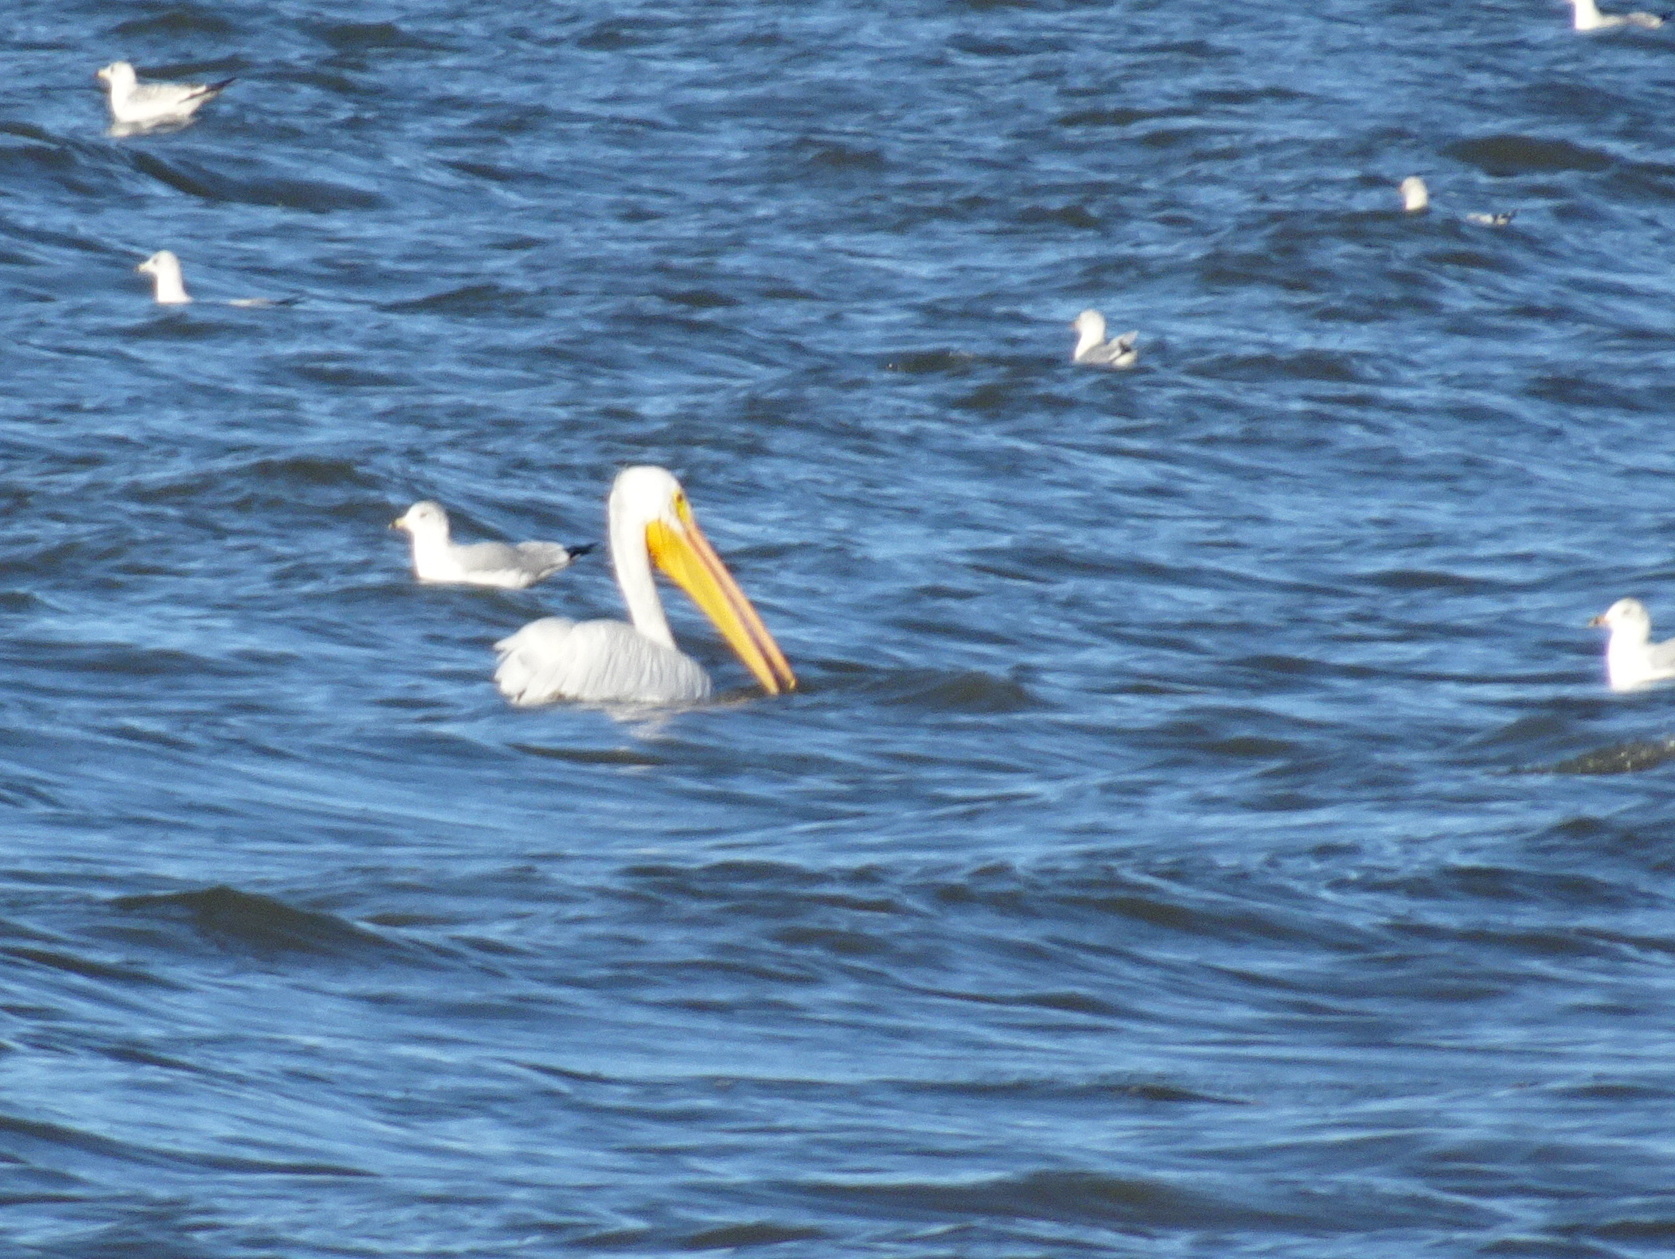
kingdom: Animalia
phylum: Chordata
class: Aves
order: Pelecaniformes
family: Pelecanidae
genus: Pelecanus
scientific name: Pelecanus erythrorhynchos
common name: American white pelican
